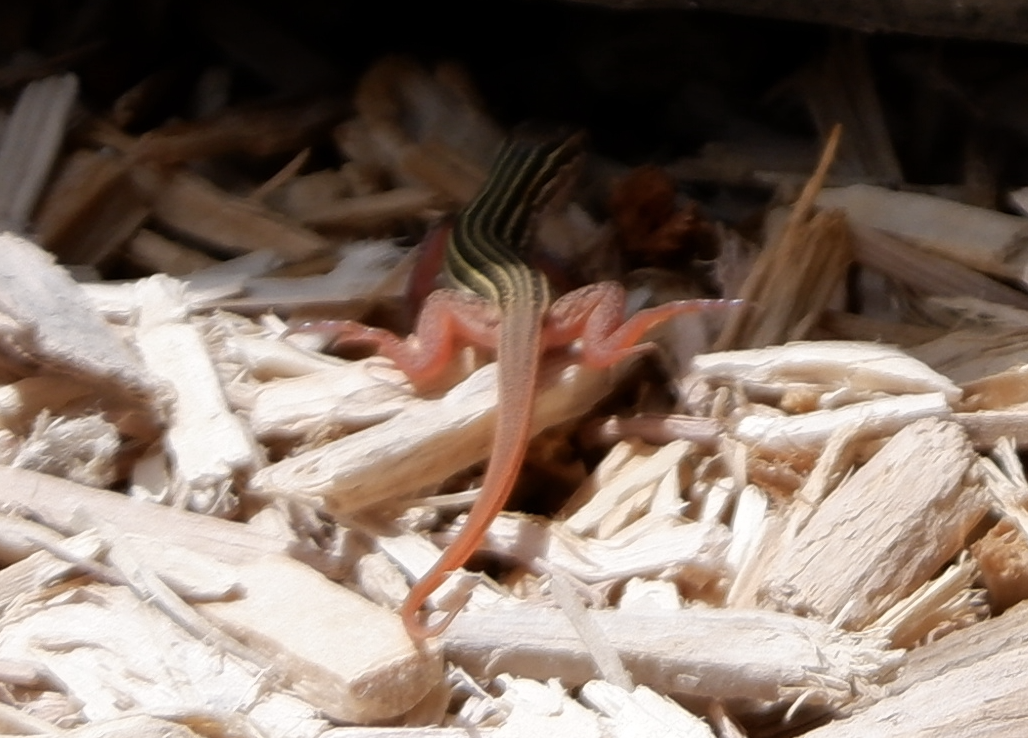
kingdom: Animalia
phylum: Chordata
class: Squamata
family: Teiidae
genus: Aspidoscelis
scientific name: Aspidoscelis gularis
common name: Eastern spotted whiptail
